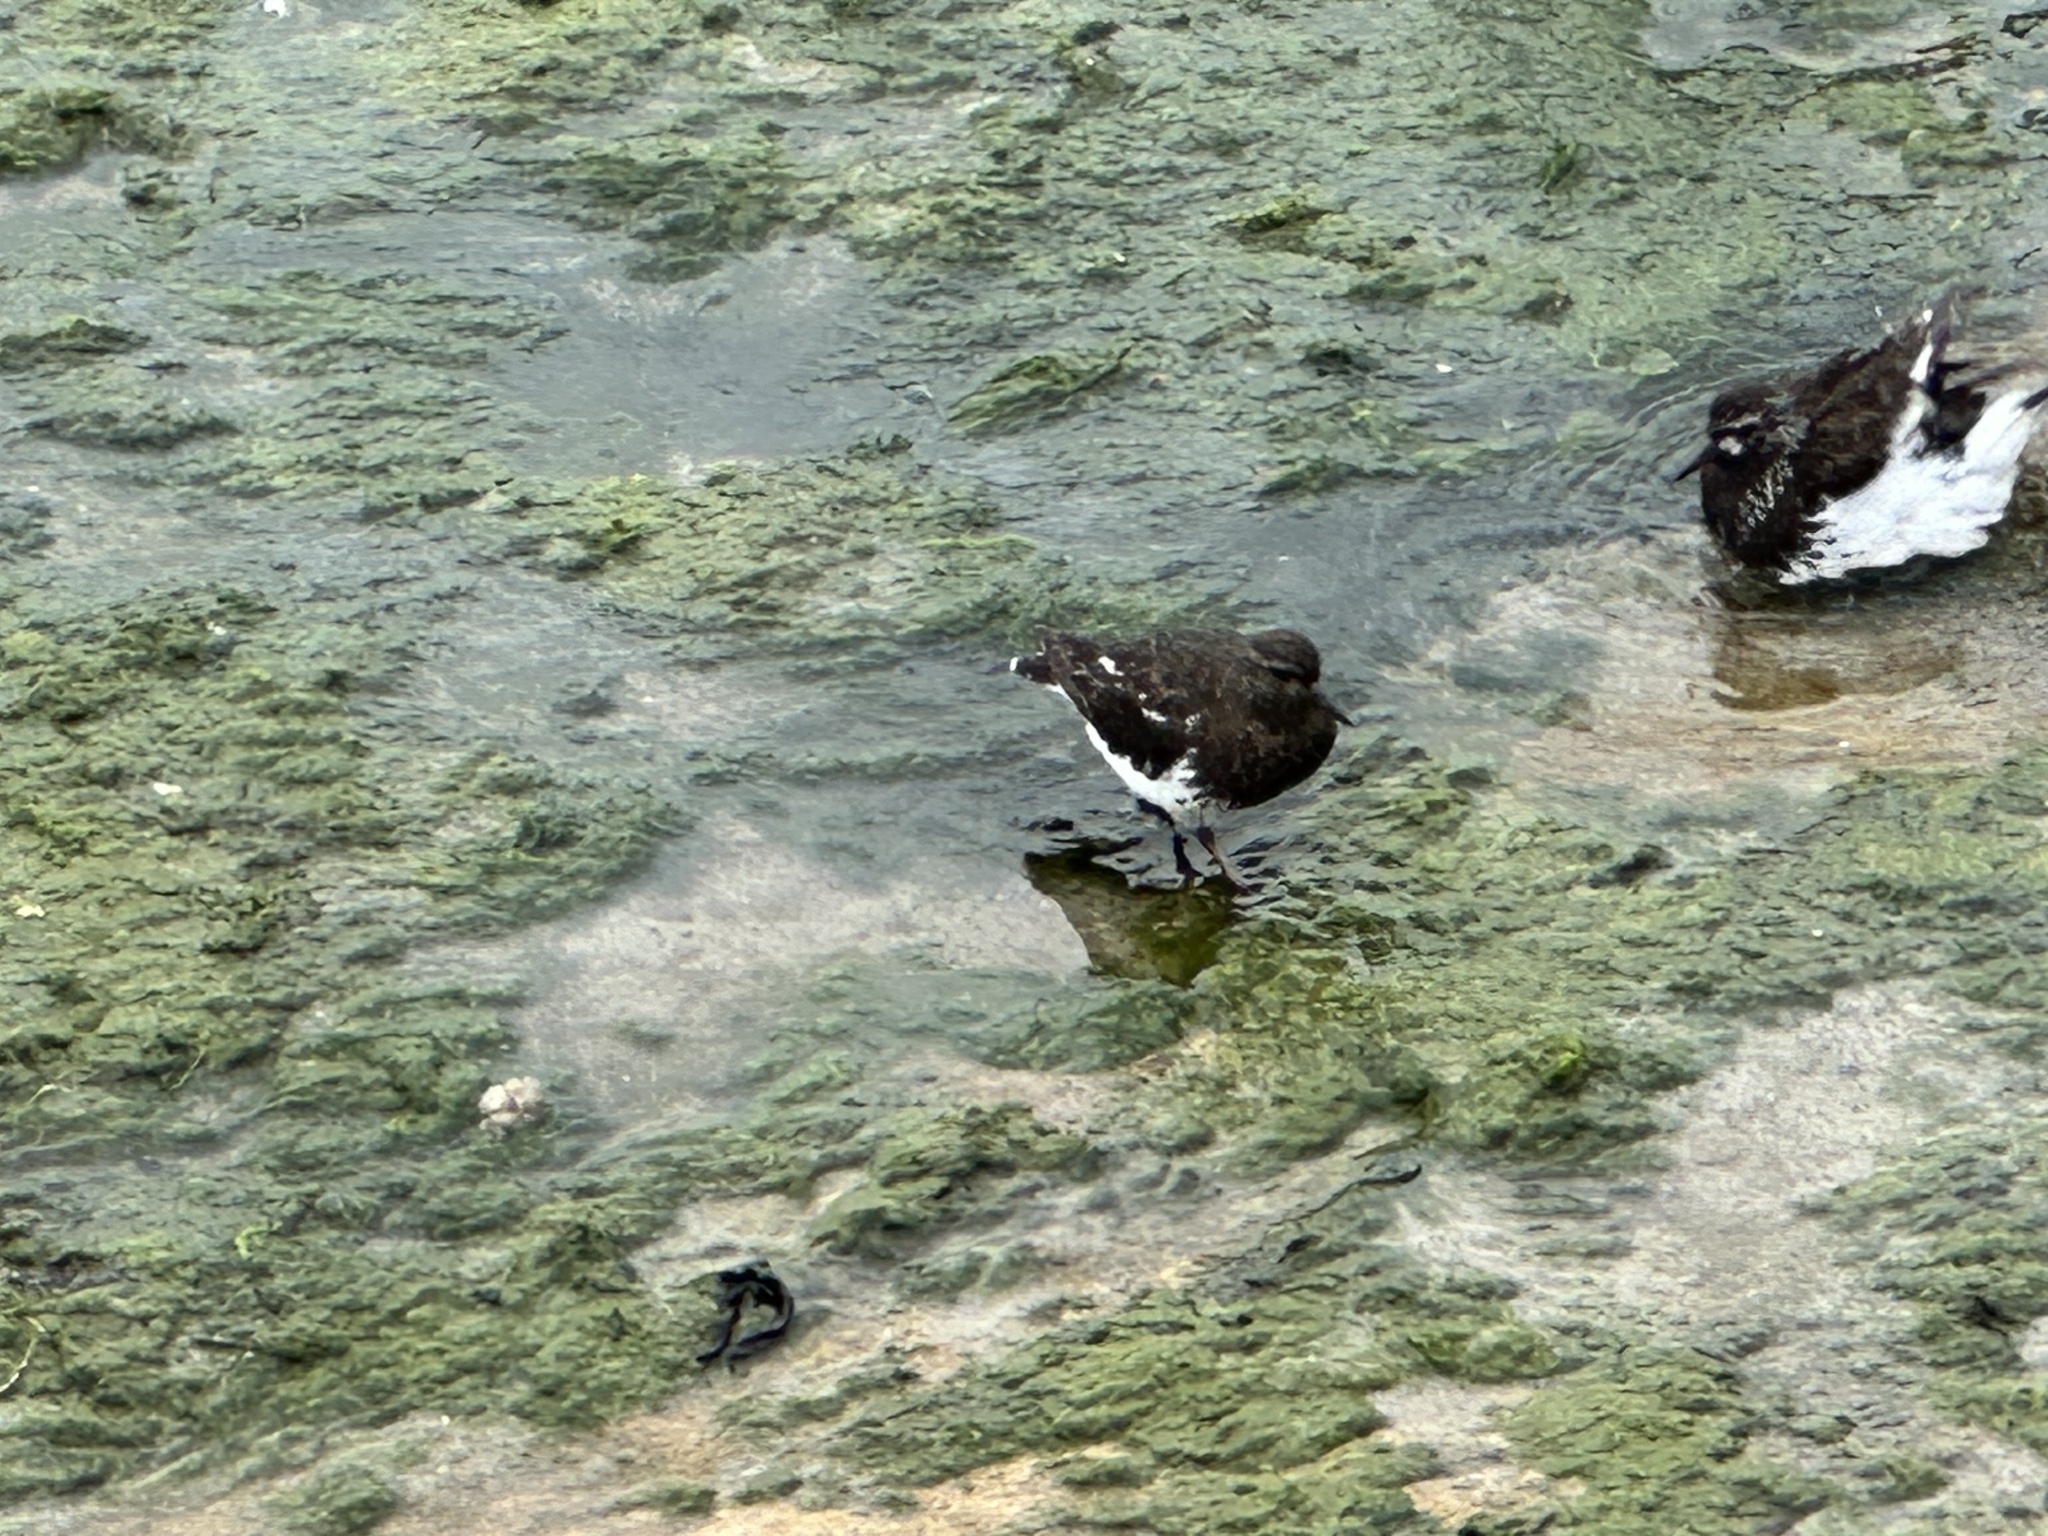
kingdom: Animalia
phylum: Chordata
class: Aves
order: Charadriiformes
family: Scolopacidae
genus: Arenaria
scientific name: Arenaria melanocephala
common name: Black turnstone
